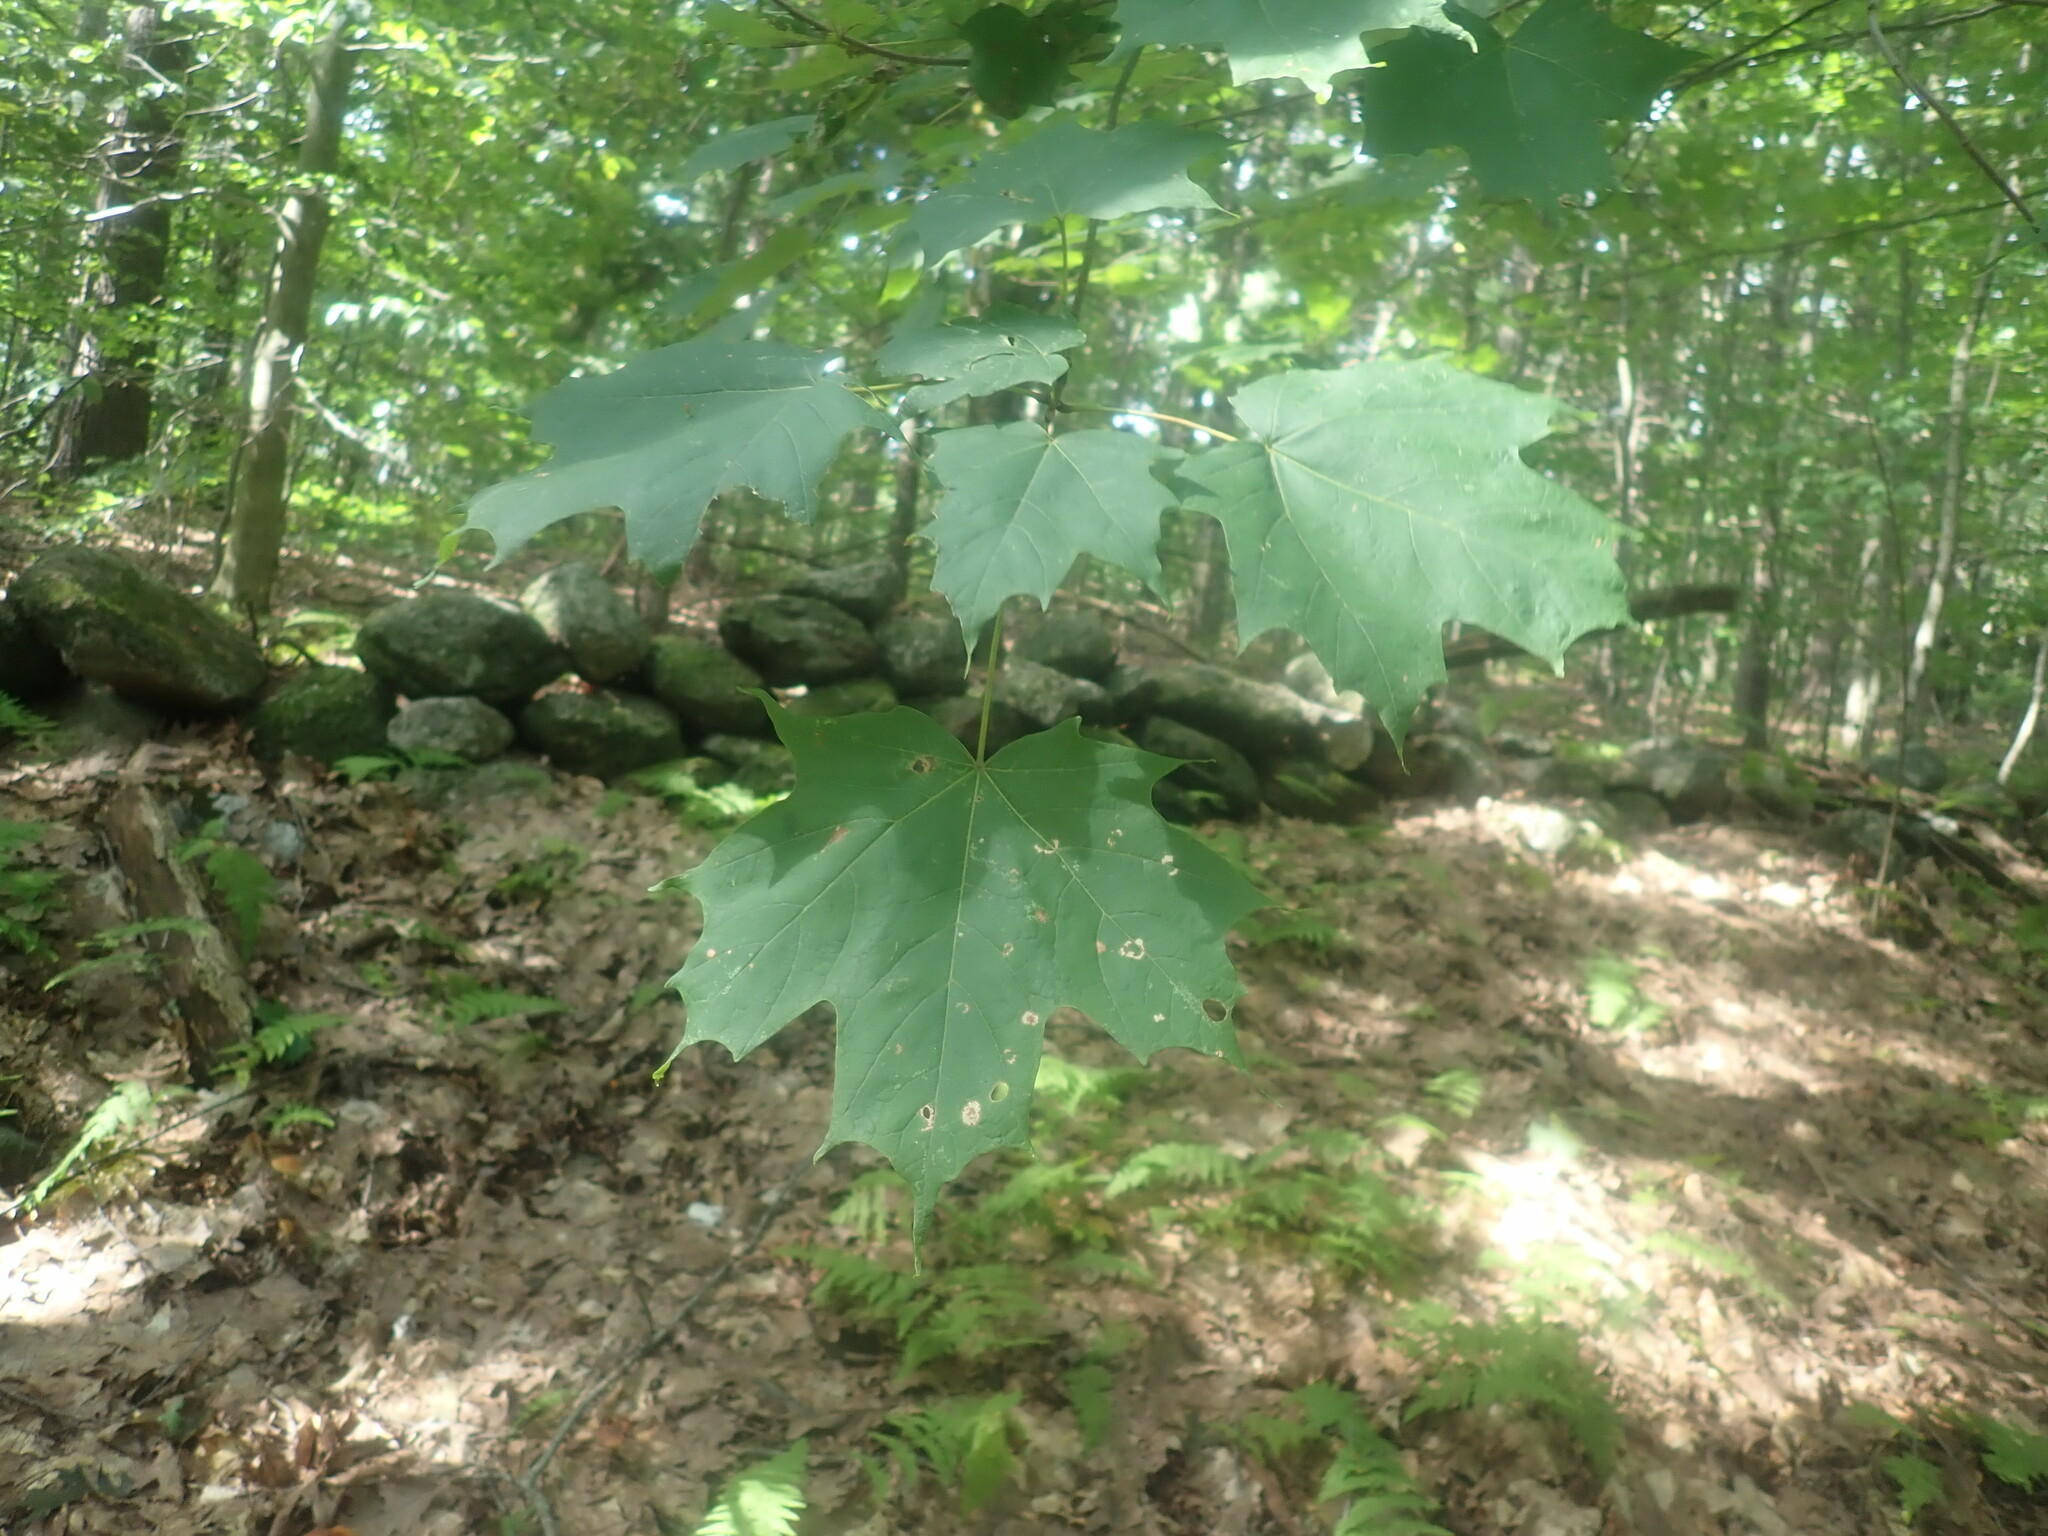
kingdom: Plantae
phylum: Tracheophyta
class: Magnoliopsida
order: Sapindales
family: Sapindaceae
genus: Acer
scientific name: Acer saccharum
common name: Sugar maple
